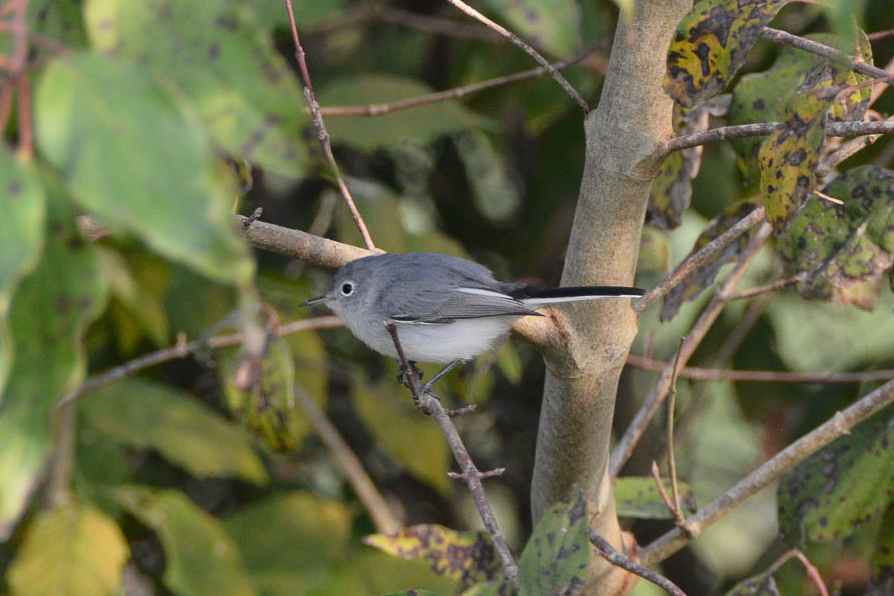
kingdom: Animalia
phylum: Chordata
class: Aves
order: Passeriformes
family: Polioptilidae
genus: Polioptila
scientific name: Polioptila caerulea
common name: Blue-gray gnatcatcher
